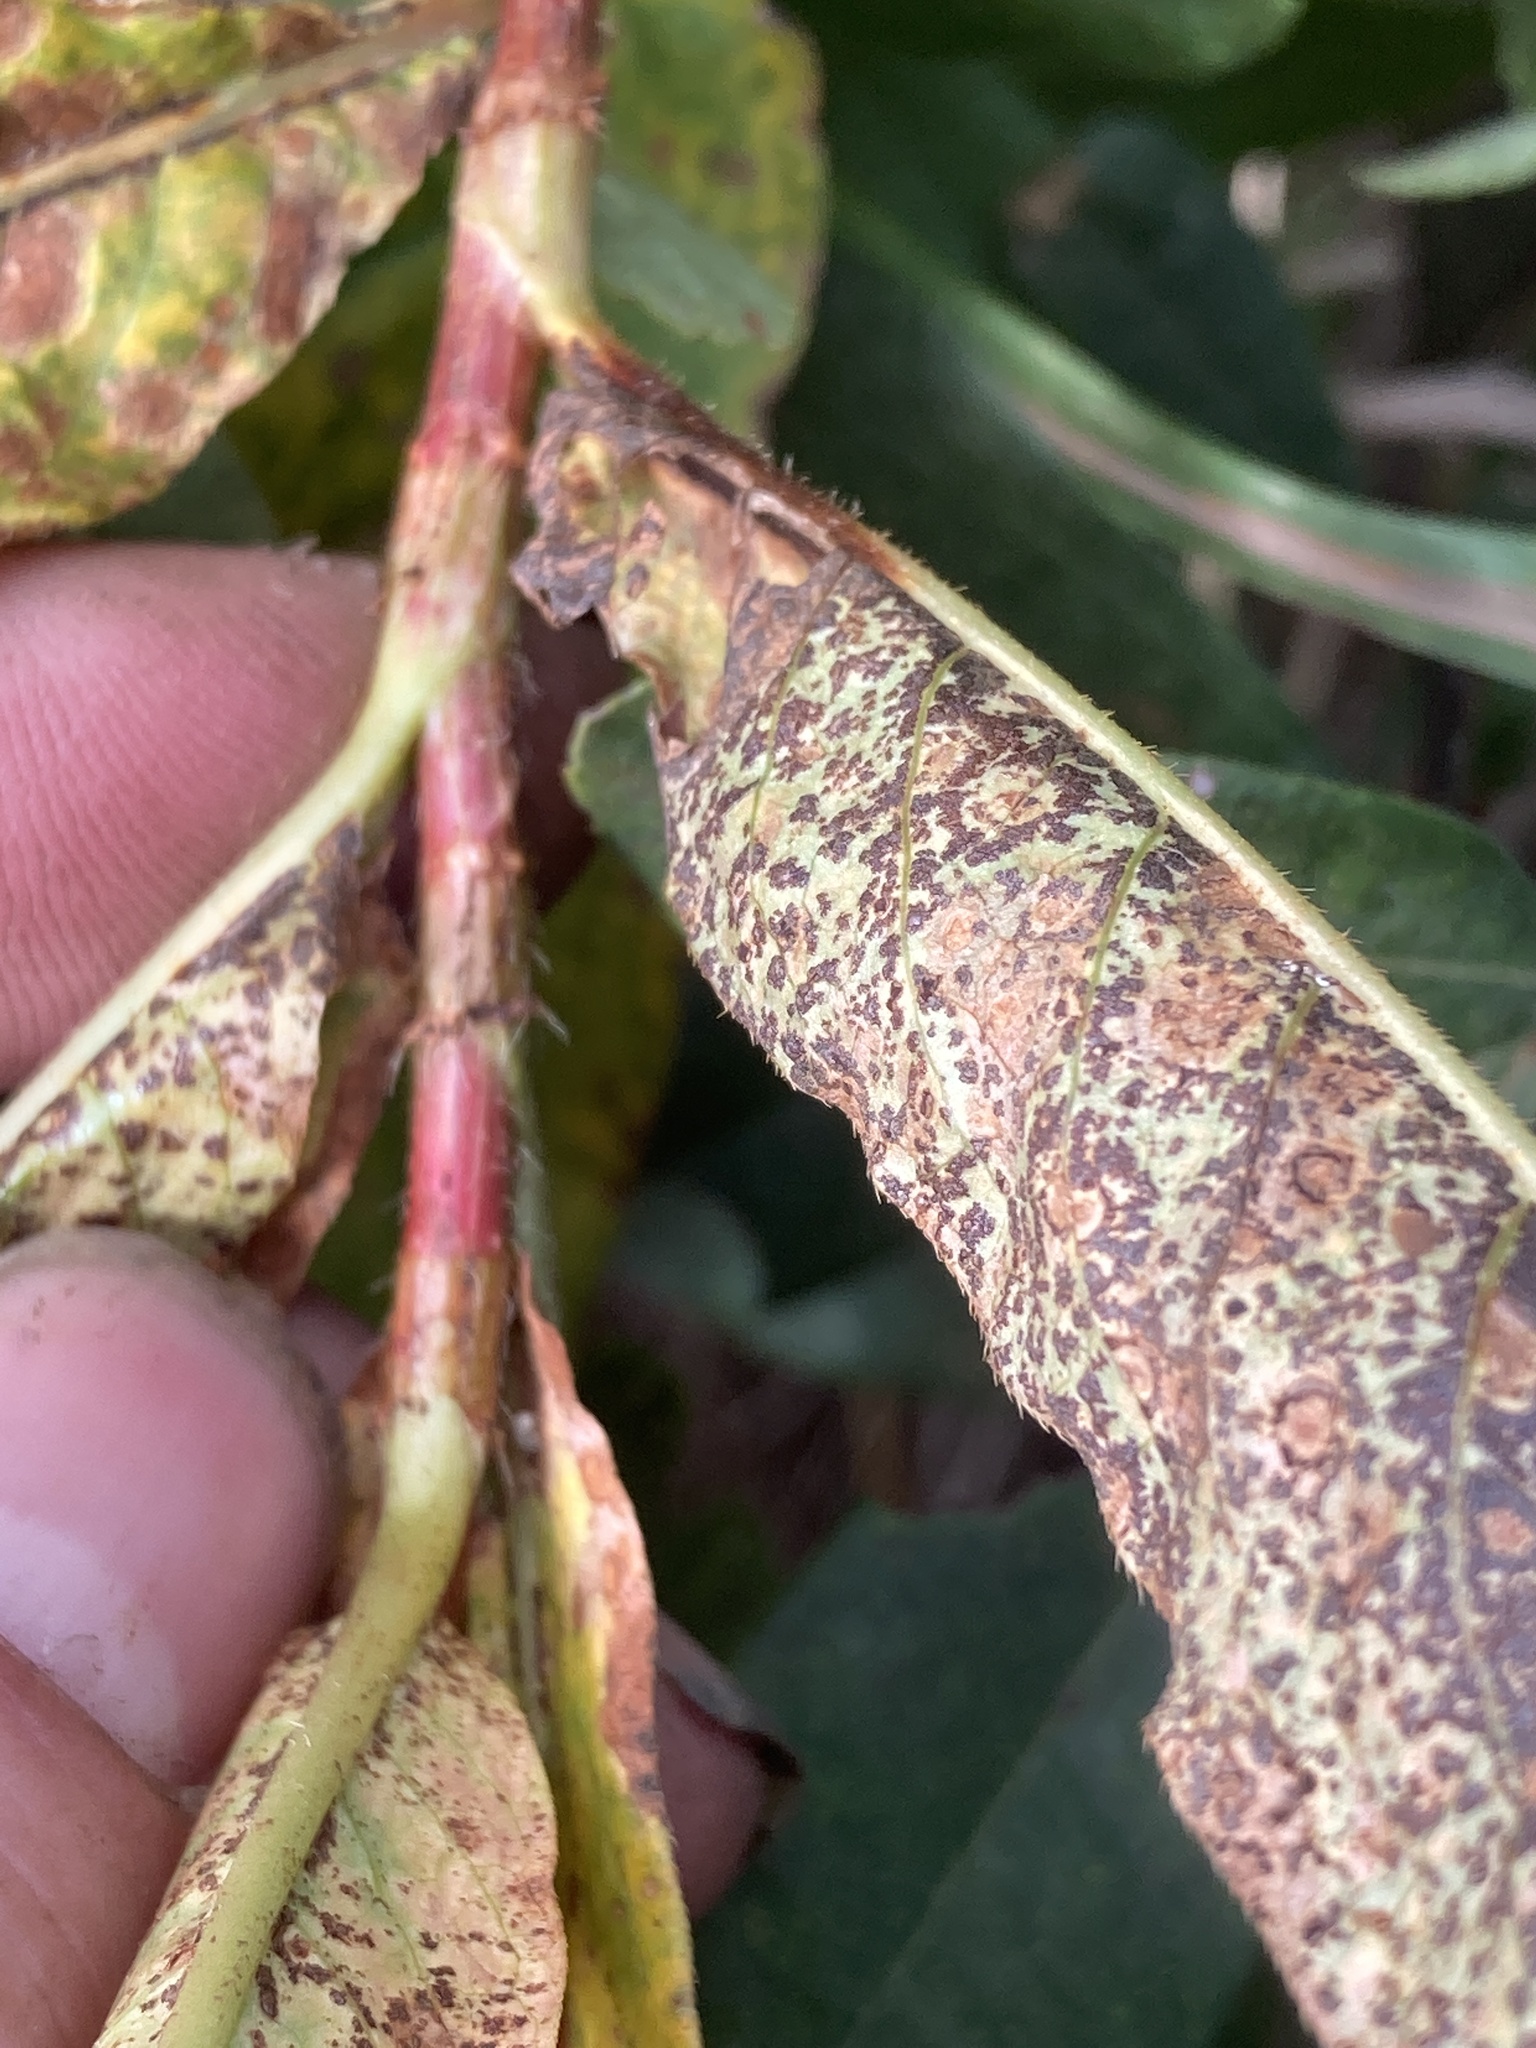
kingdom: Plantae
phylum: Tracheophyta
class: Magnoliopsida
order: Caryophyllales
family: Polygonaceae
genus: Persicaria
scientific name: Persicaria amphibia
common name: Amphibious bistort
